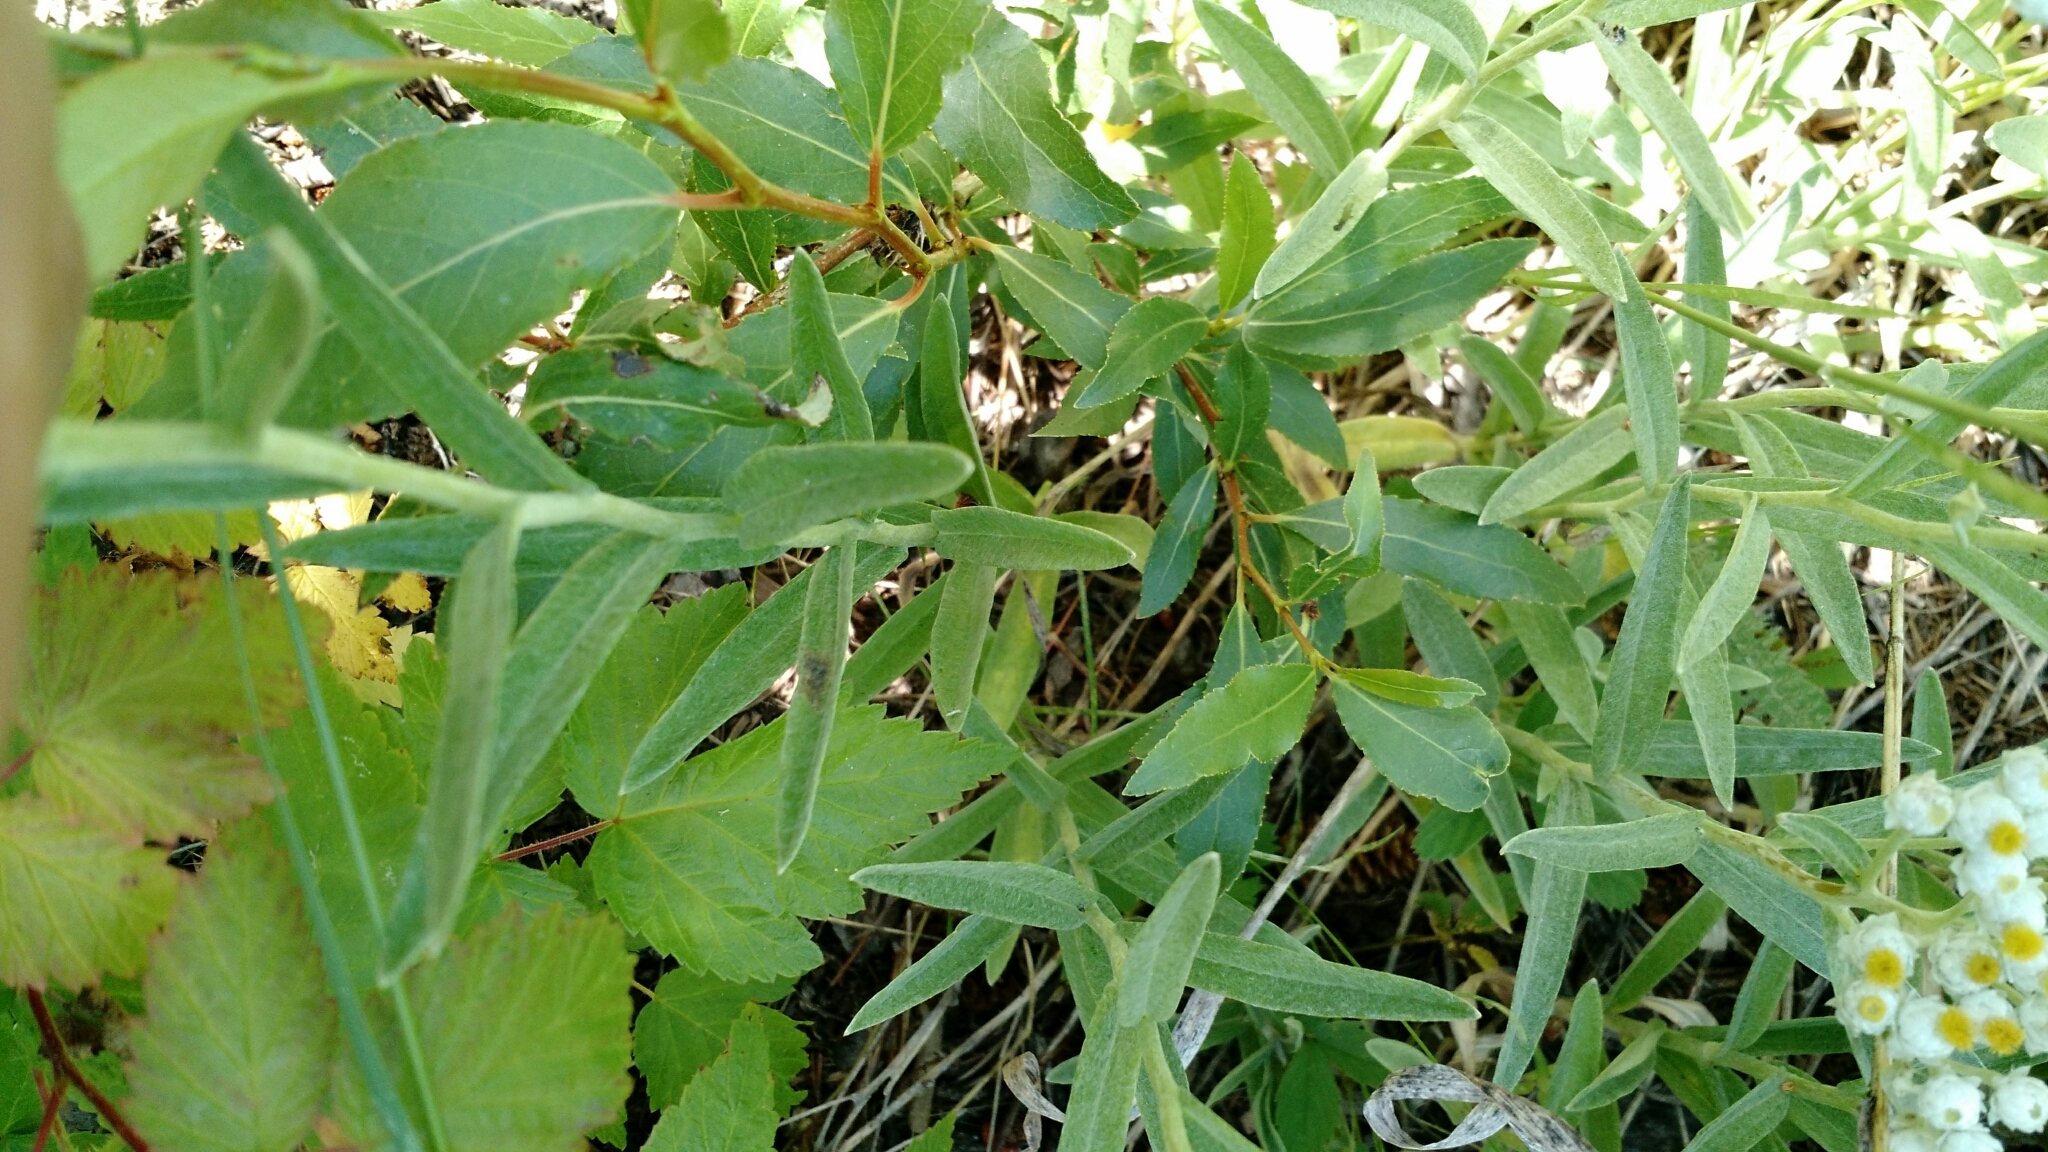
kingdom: Plantae
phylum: Tracheophyta
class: Magnoliopsida
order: Asterales
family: Asteraceae
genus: Anaphalis
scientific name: Anaphalis margaritacea
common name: Pearly everlasting
